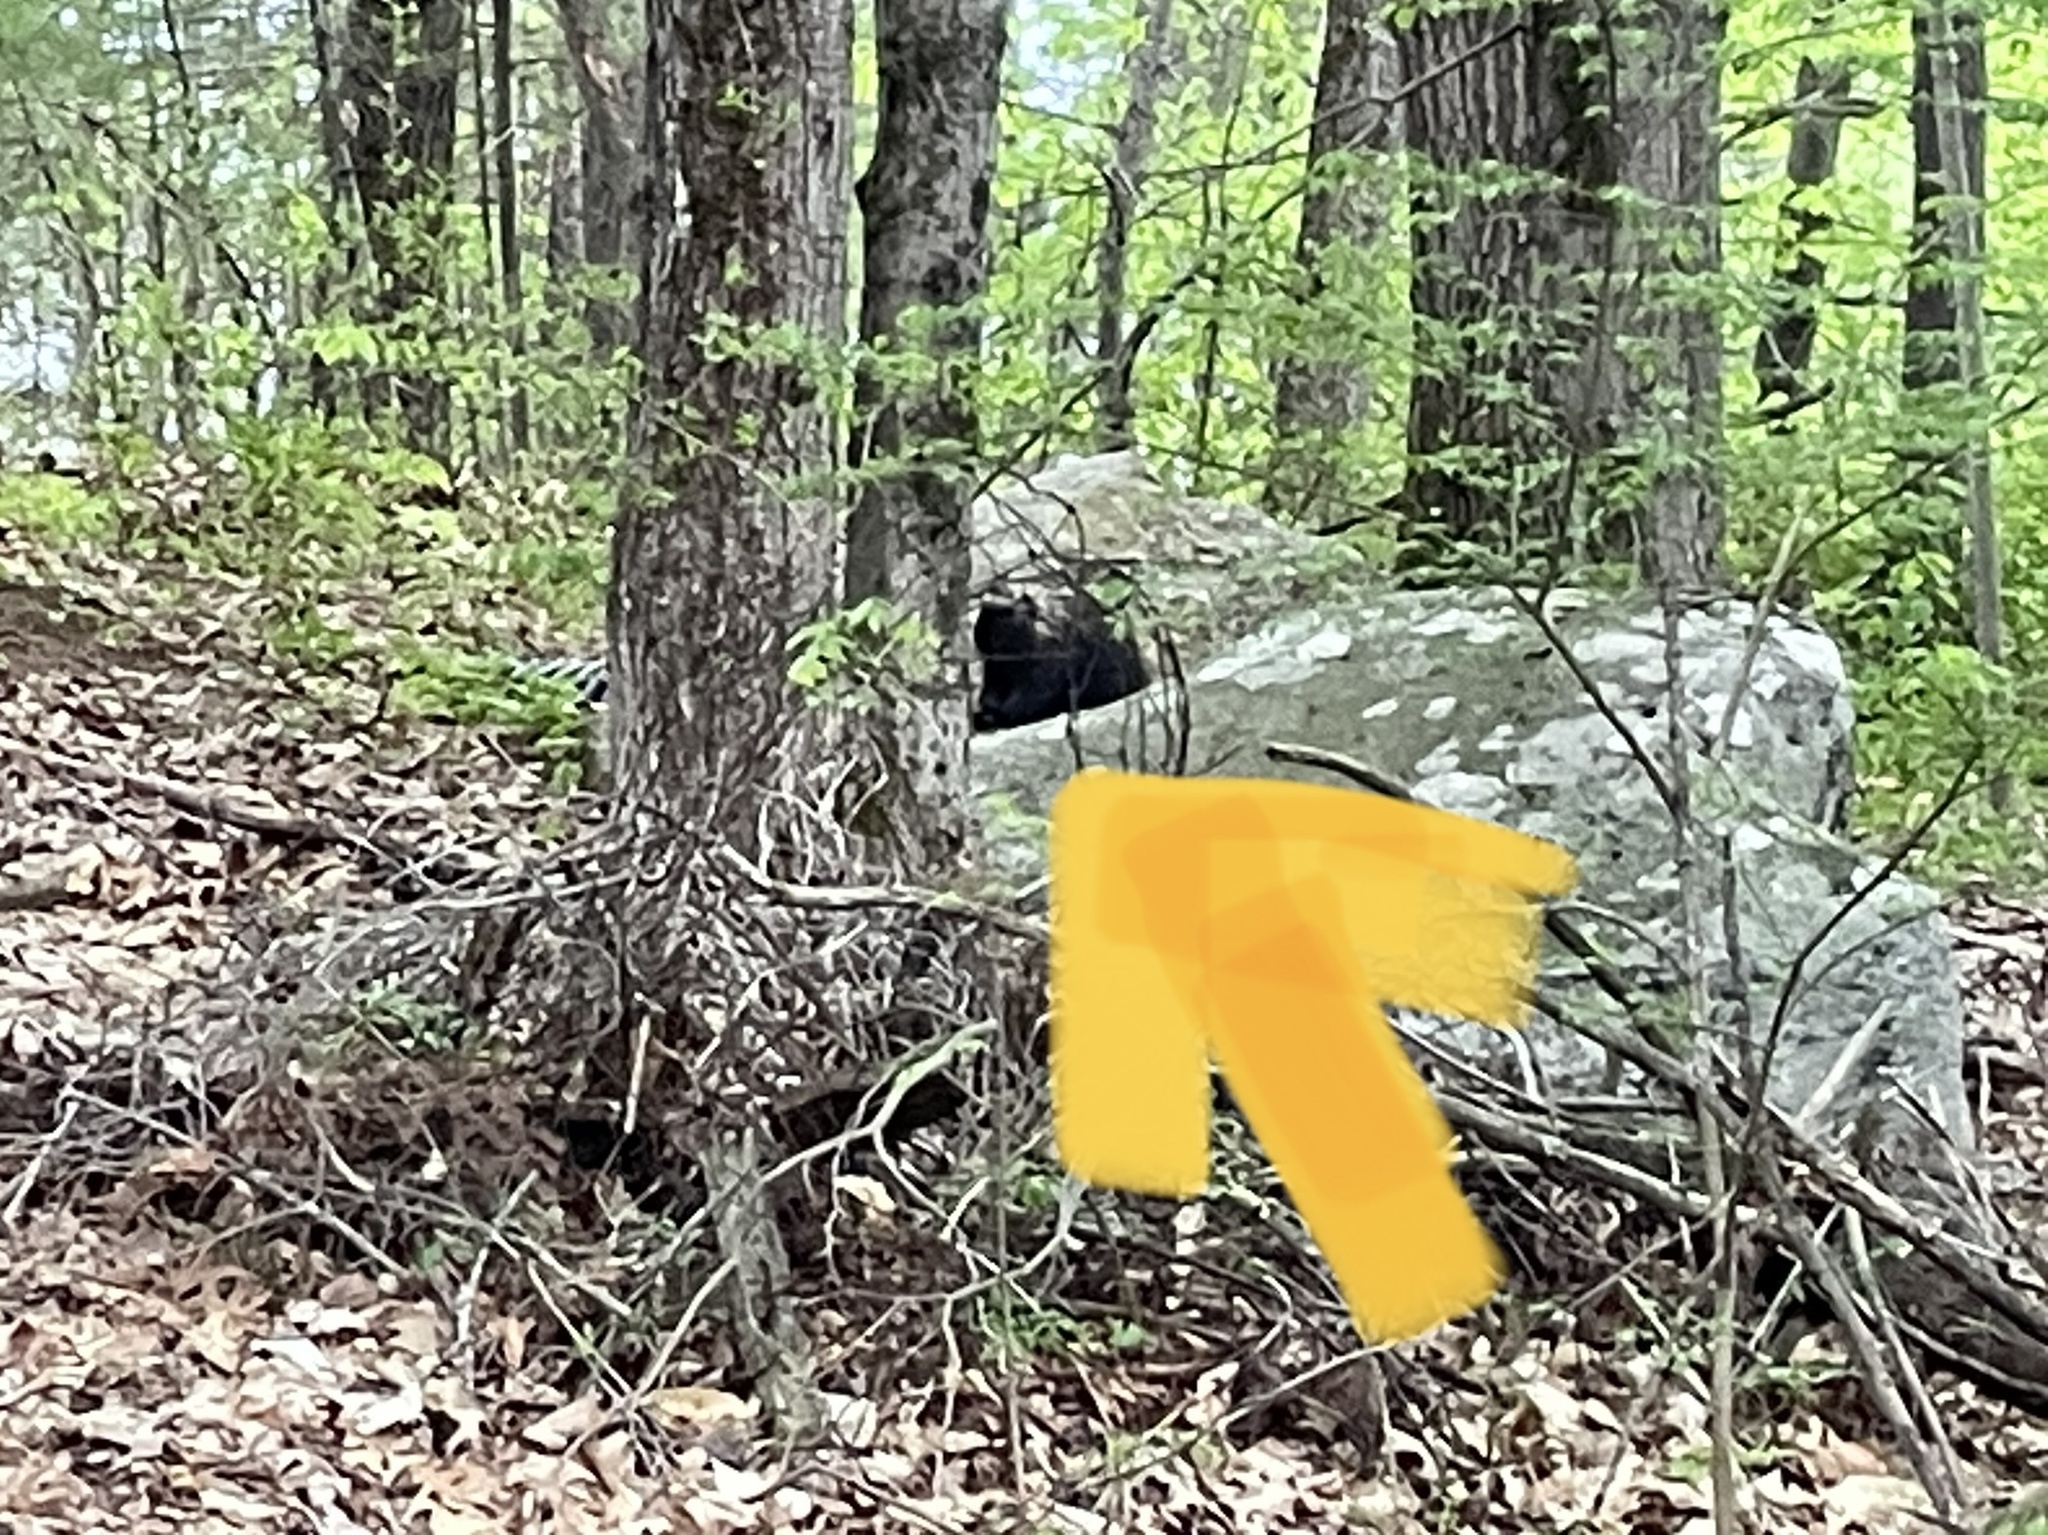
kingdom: Animalia
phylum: Chordata
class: Mammalia
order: Rodentia
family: Erethizontidae
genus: Erethizon
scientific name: Erethizon dorsatus
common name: North american porcupine
